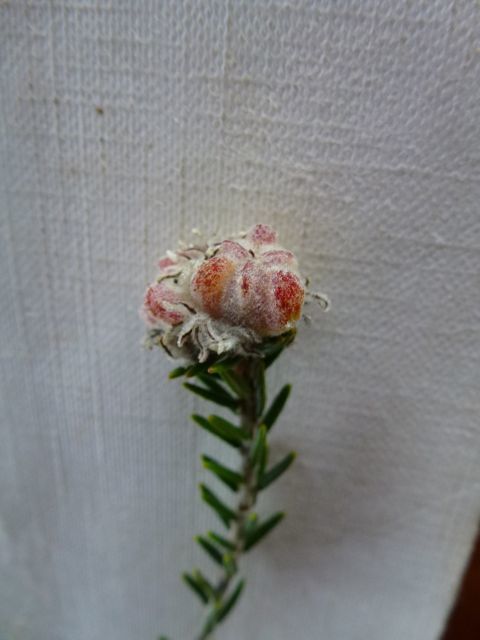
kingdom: Plantae
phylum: Tracheophyta
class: Magnoliopsida
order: Rosales
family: Rhamnaceae
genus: Trichocephalus
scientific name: Trichocephalus stipularis
